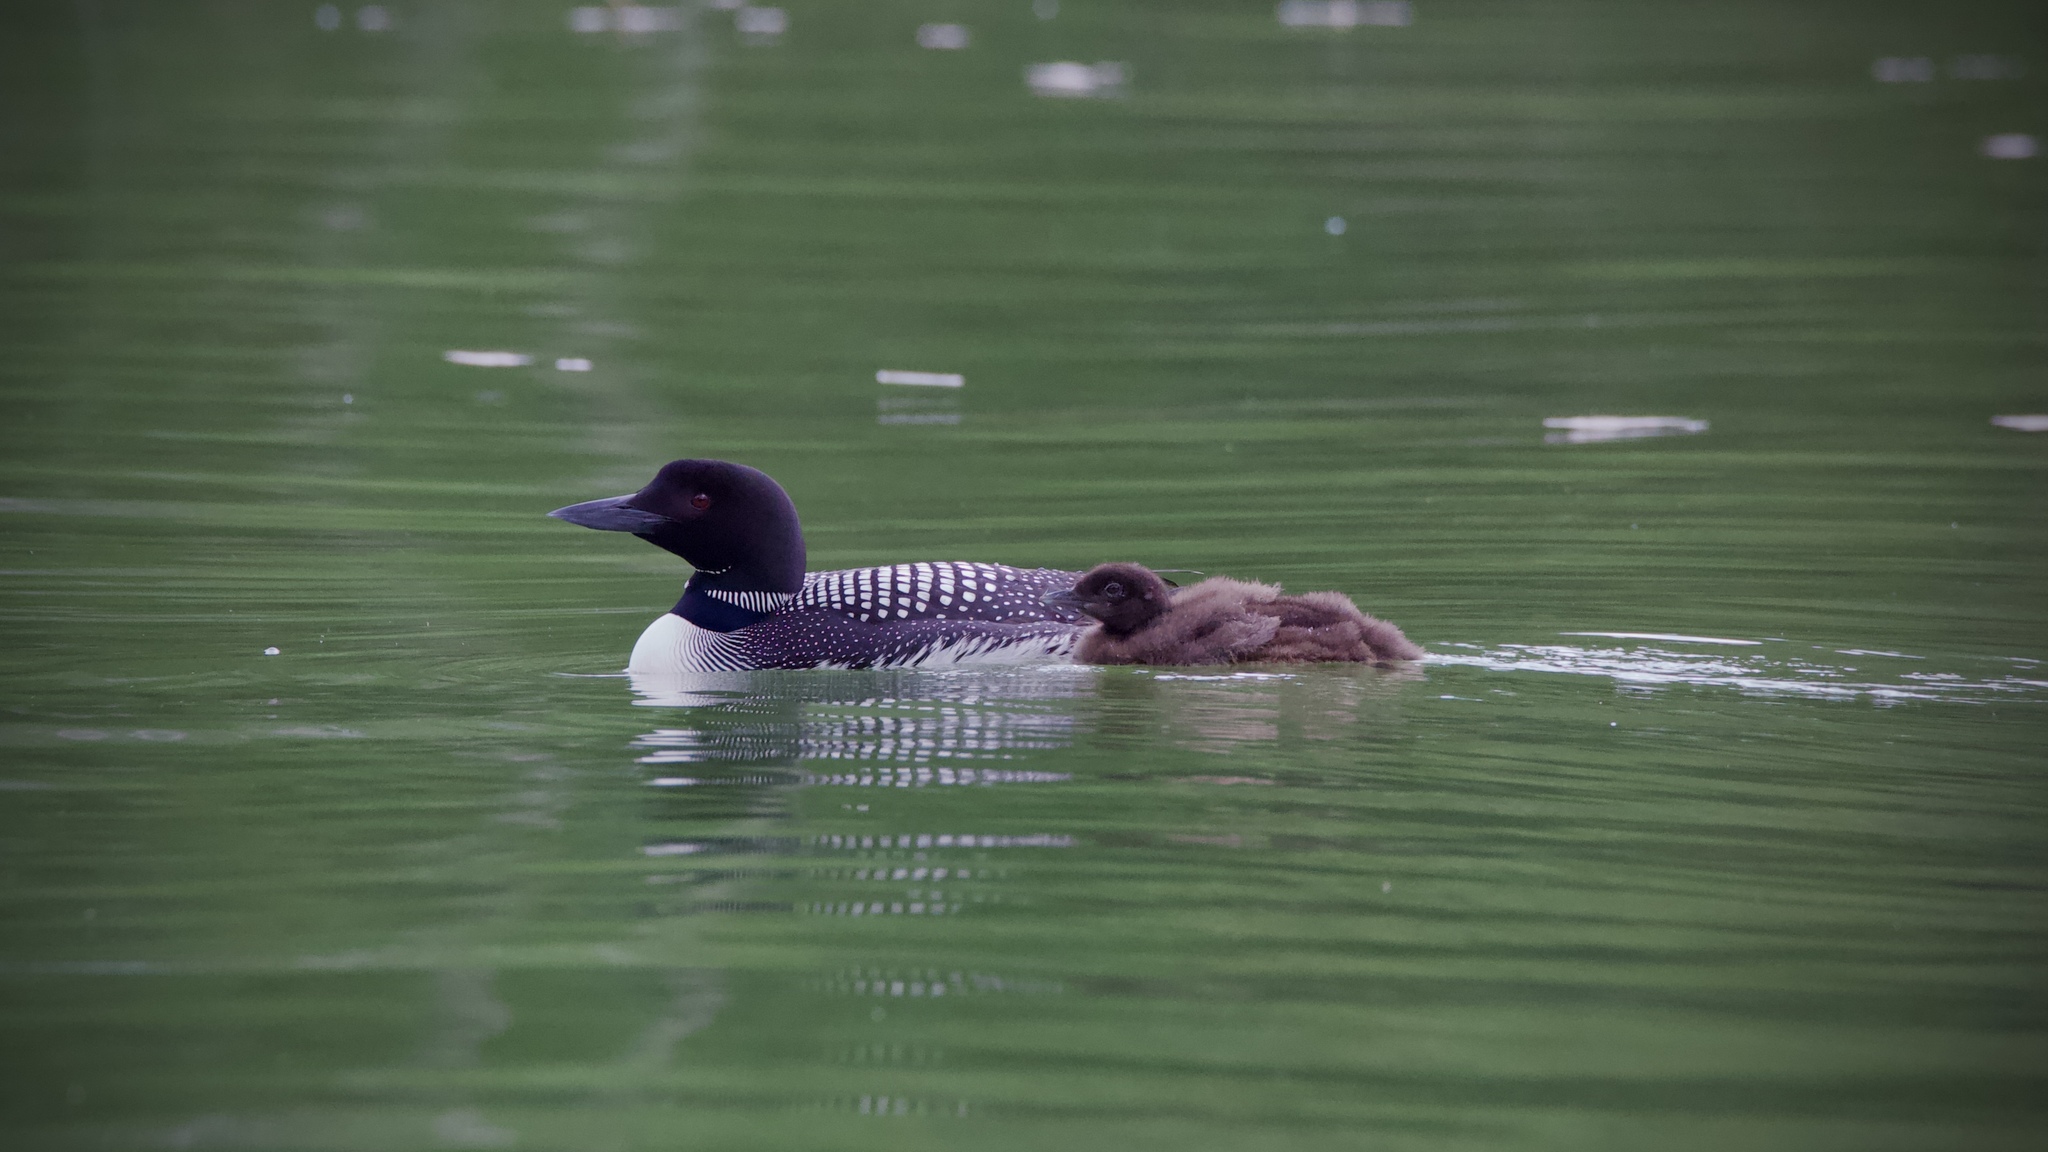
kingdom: Animalia
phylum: Chordata
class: Aves
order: Gaviiformes
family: Gaviidae
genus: Gavia
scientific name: Gavia immer
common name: Common loon
